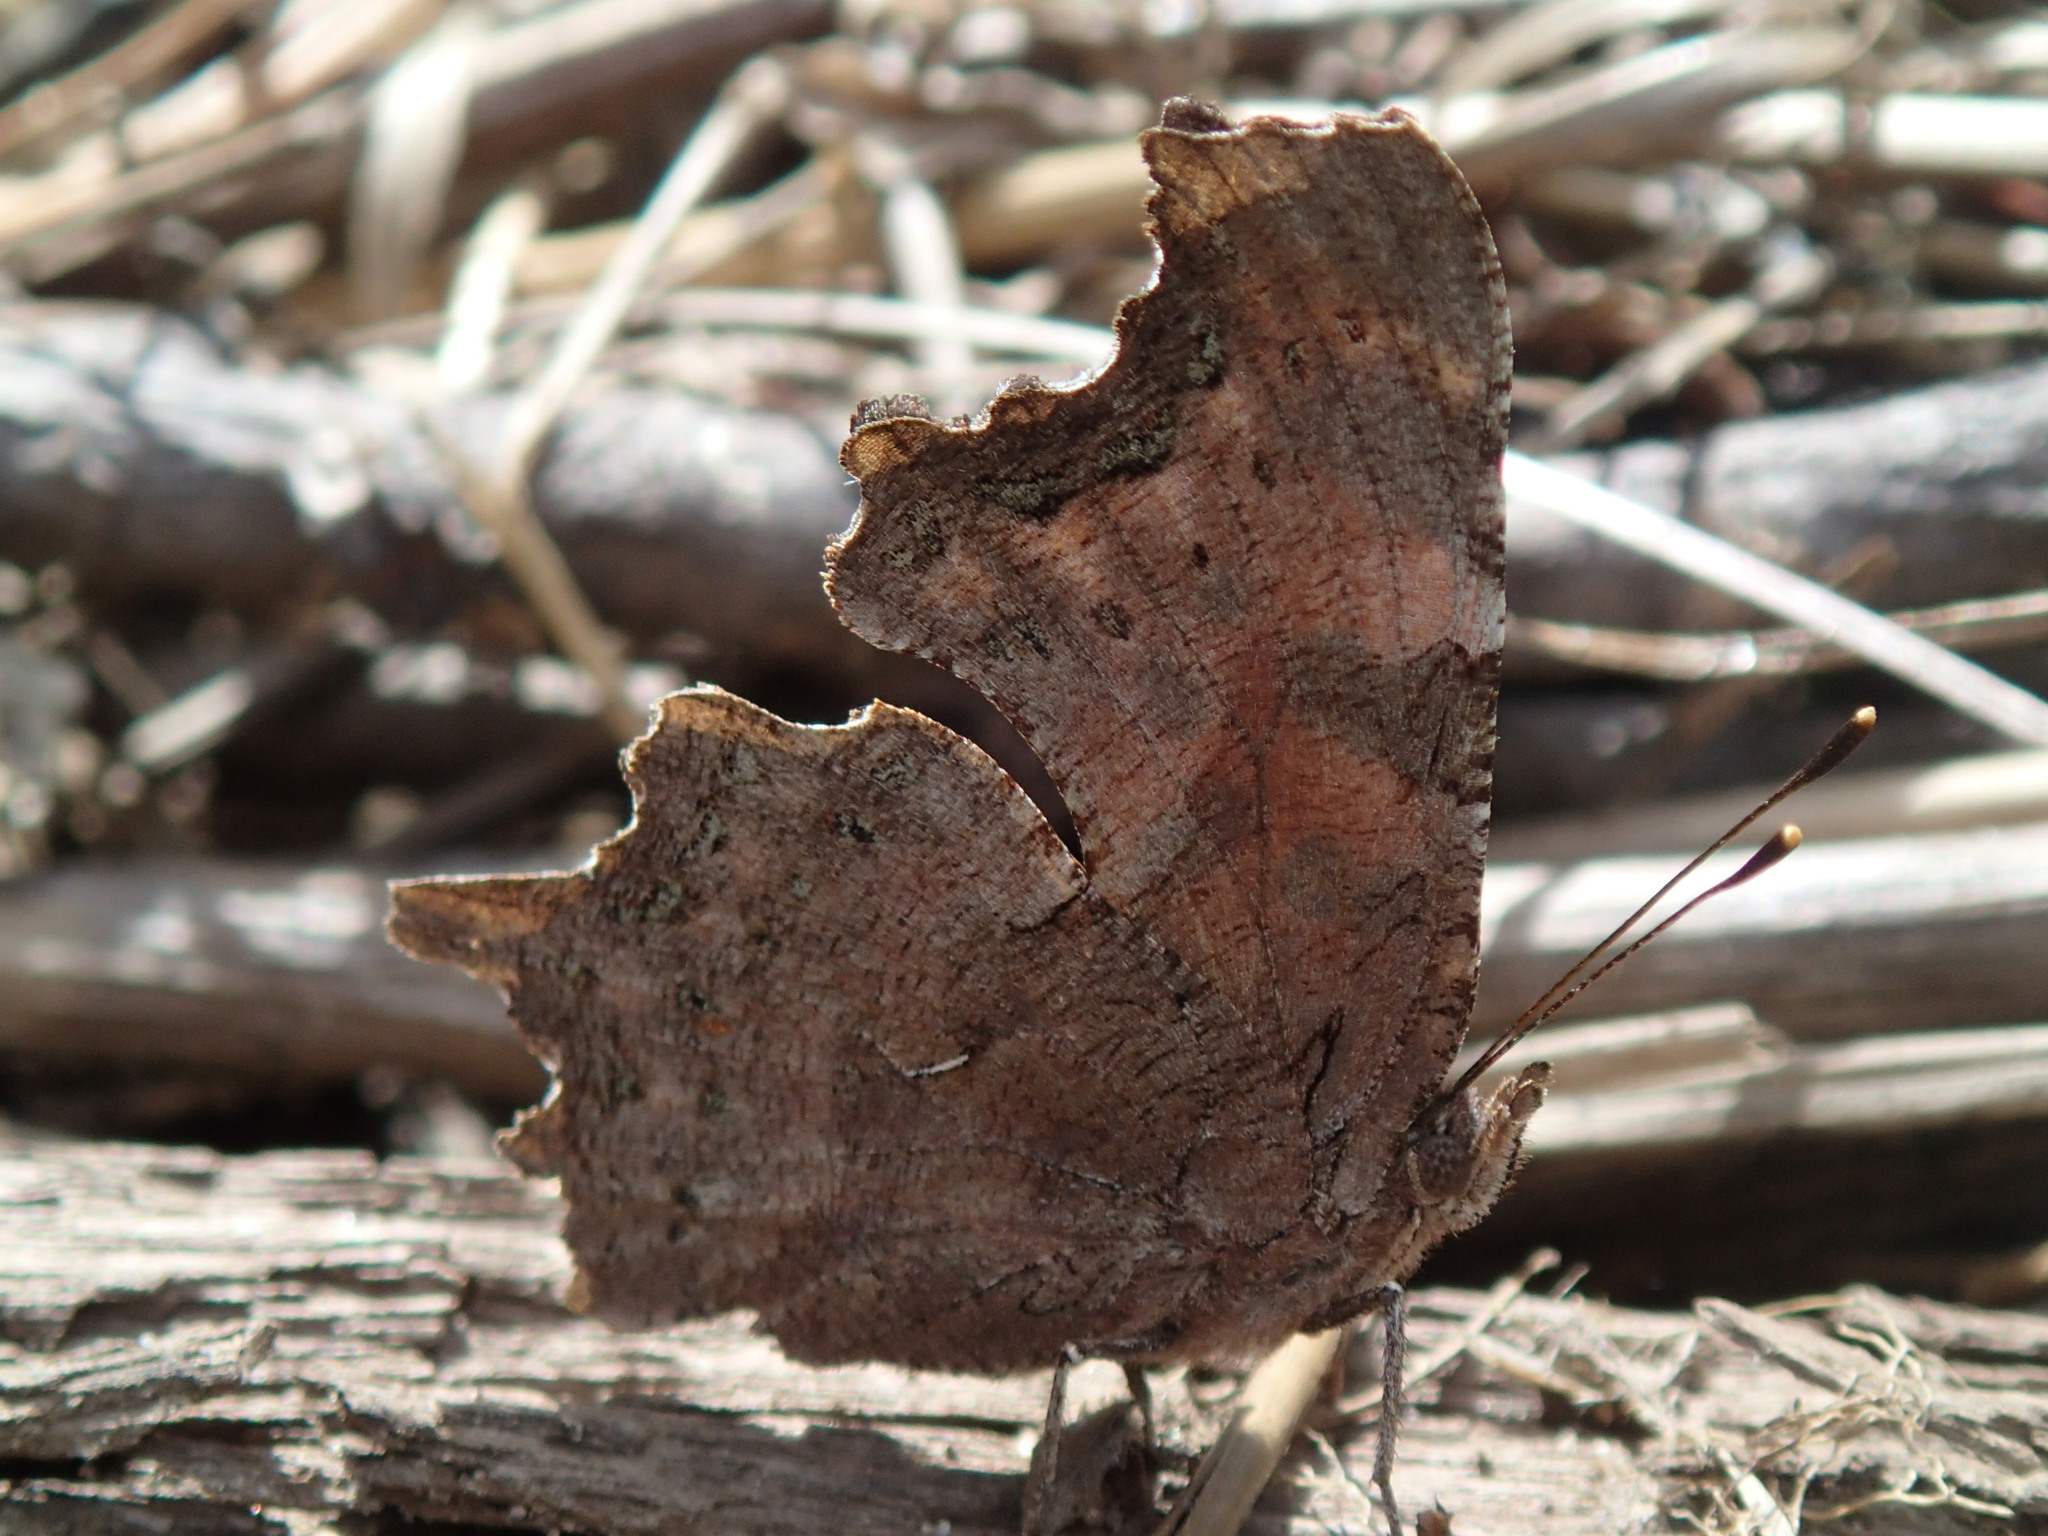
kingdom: Animalia
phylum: Arthropoda
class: Insecta
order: Lepidoptera
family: Nymphalidae
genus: Polygonia
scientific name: Polygonia faunus
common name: Green comma
